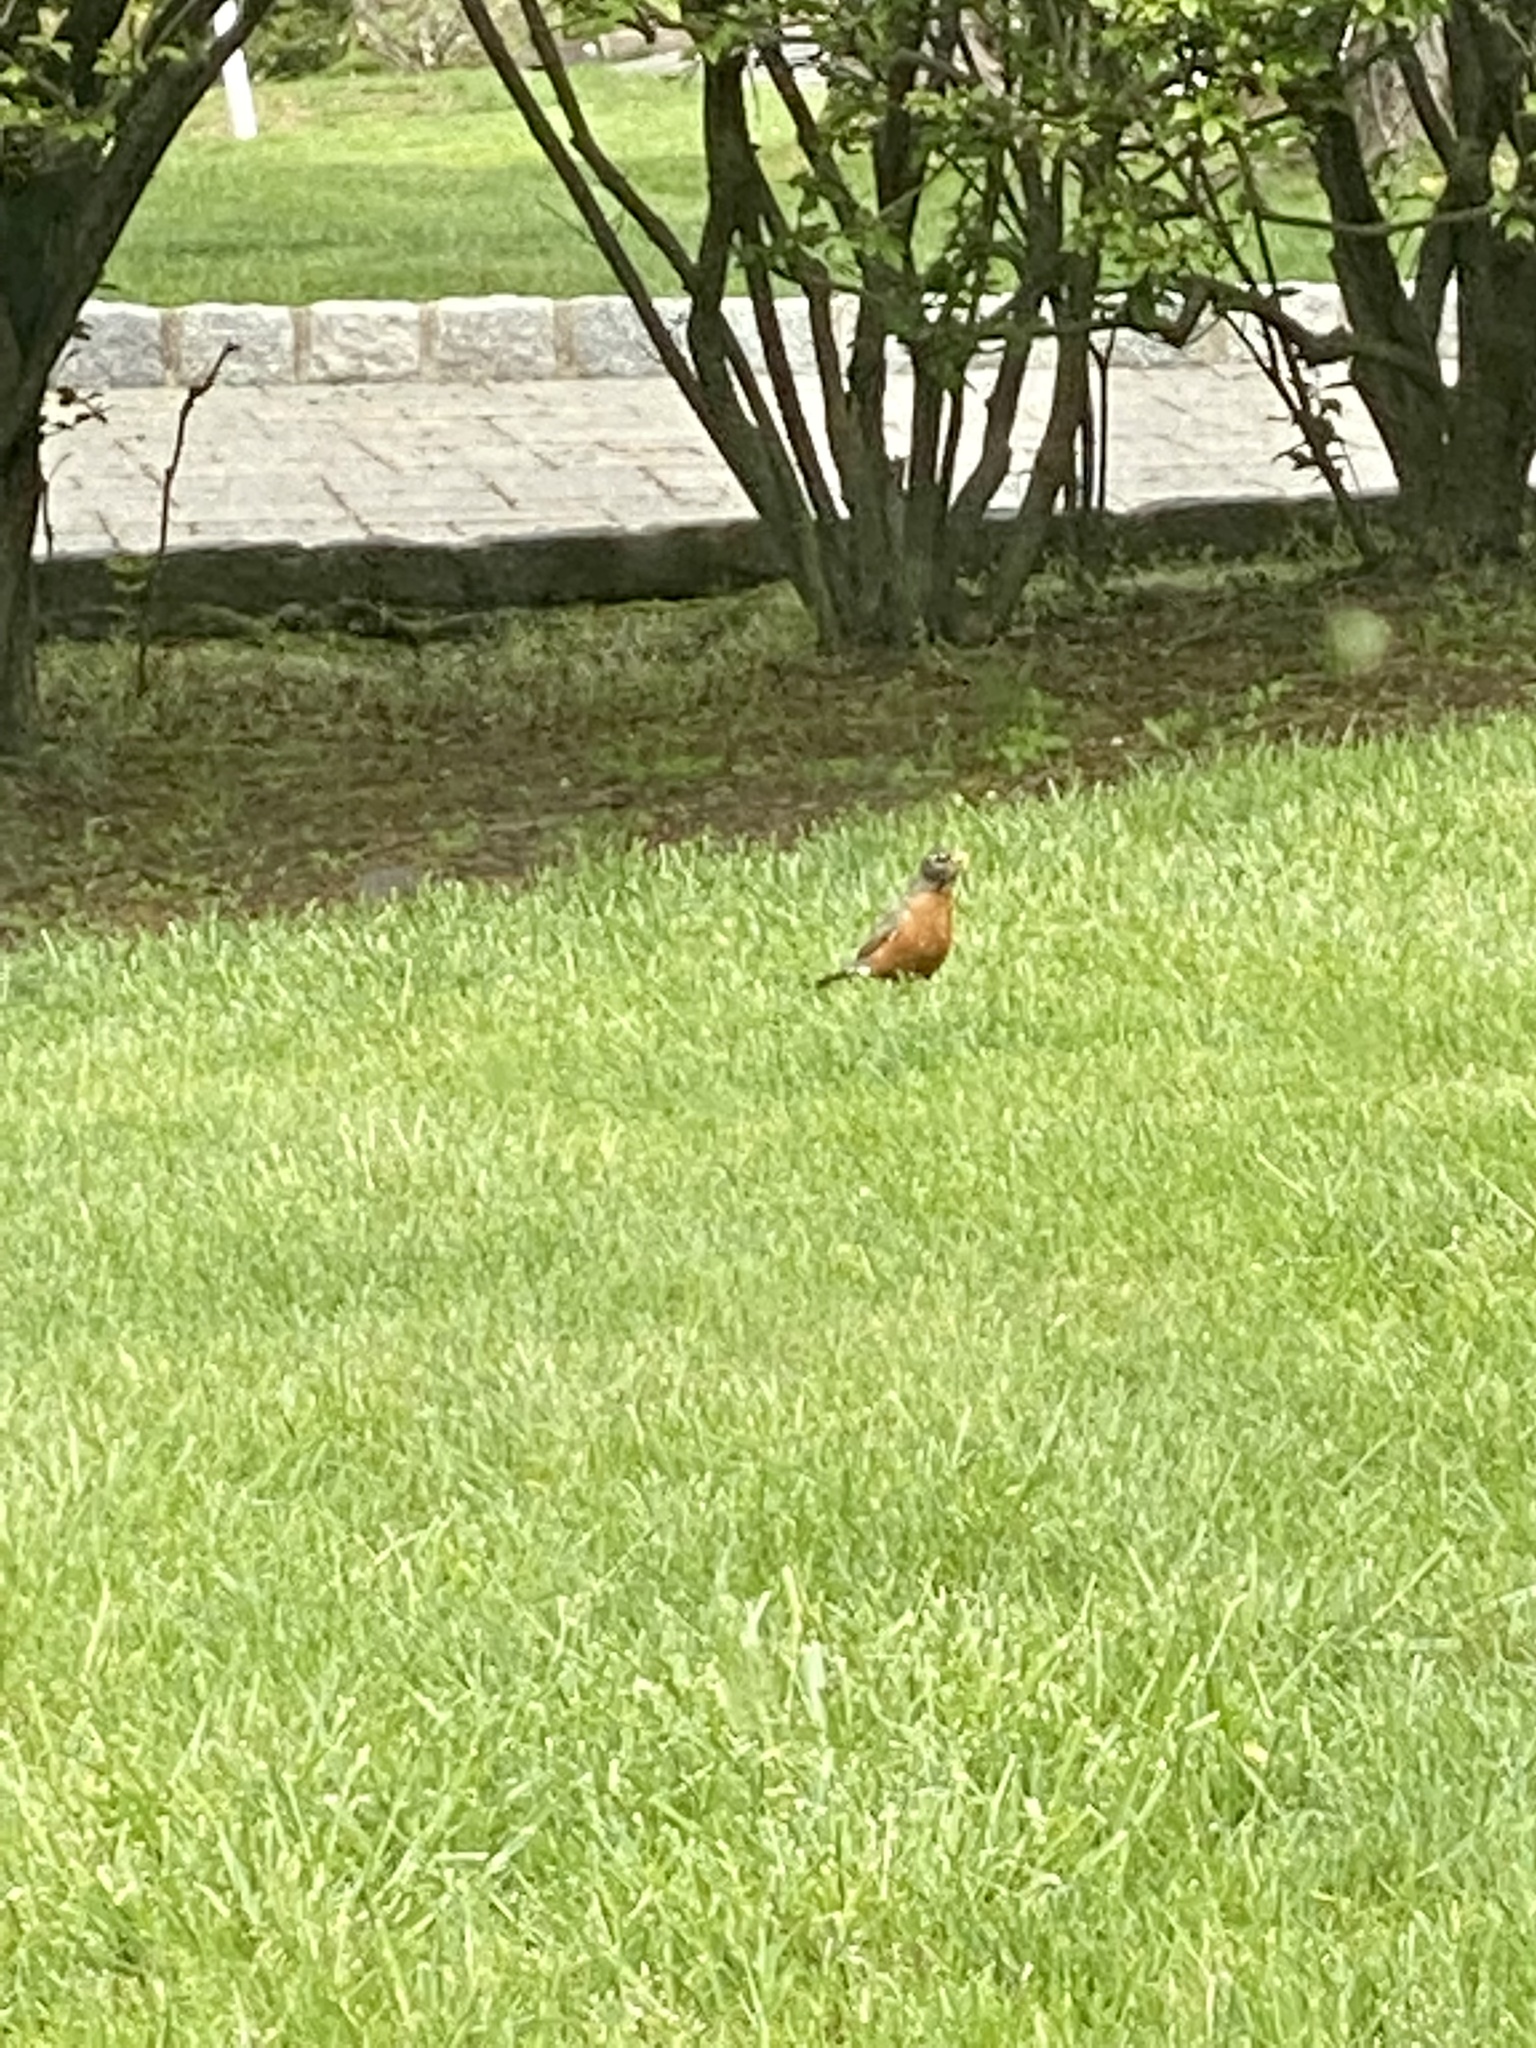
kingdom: Animalia
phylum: Chordata
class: Aves
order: Passeriformes
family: Turdidae
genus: Turdus
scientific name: Turdus migratorius
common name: American robin
